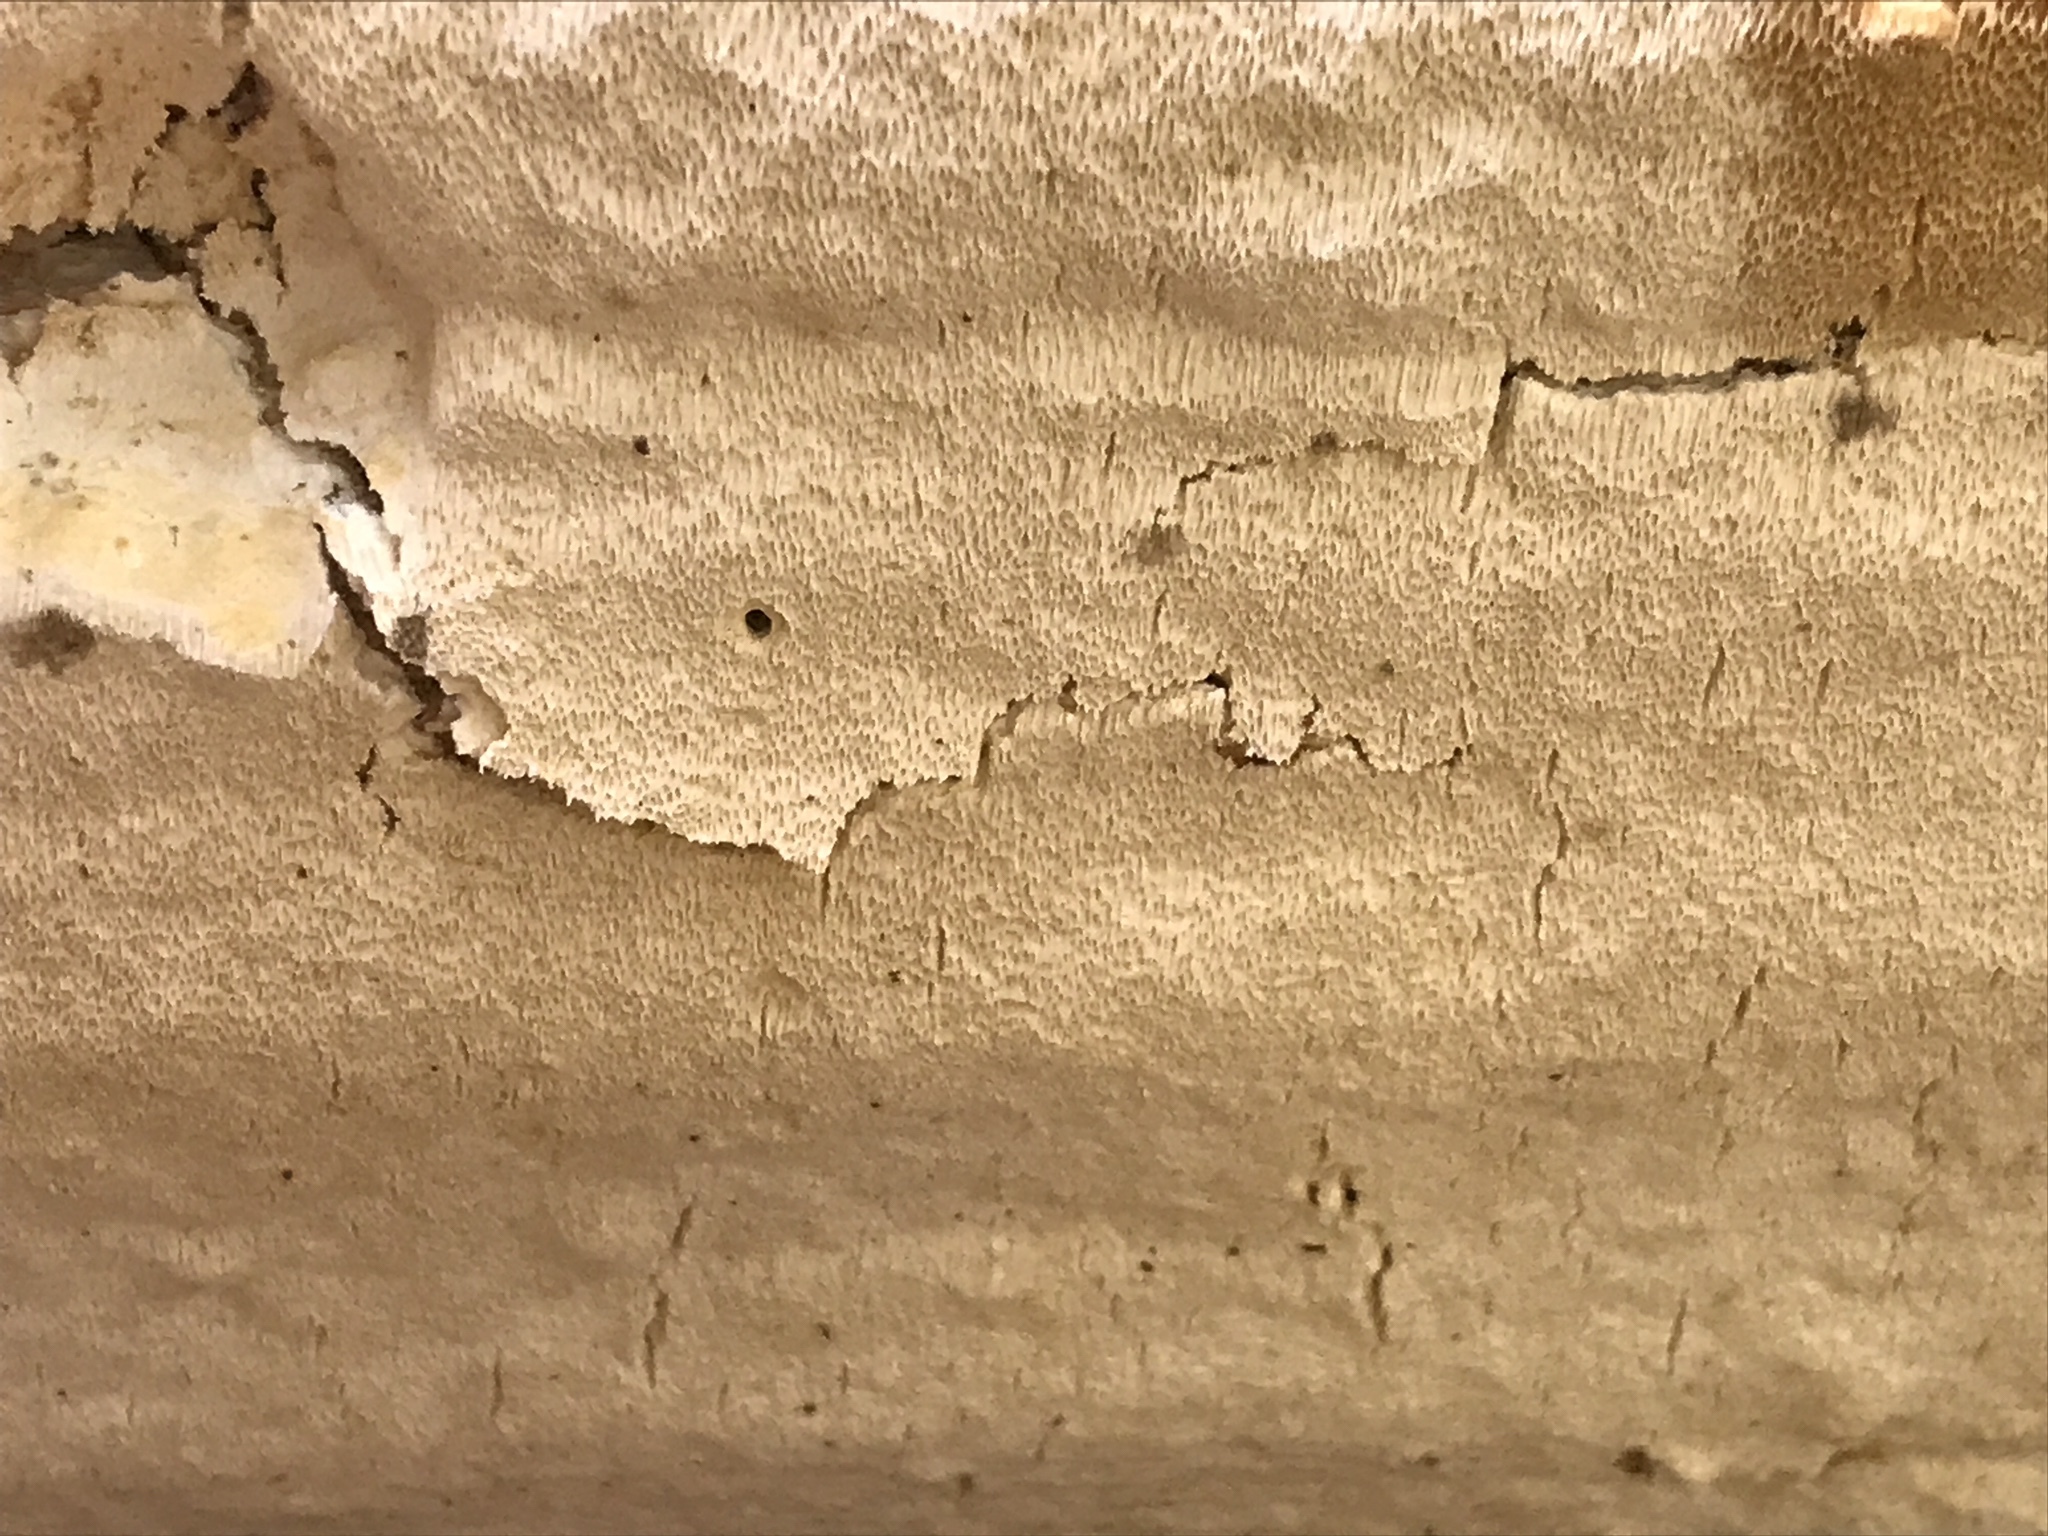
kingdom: Fungi
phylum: Basidiomycota
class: Agaricomycetes
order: Polyporales
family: Polyporaceae
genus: Perenniporia
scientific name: Perenniporia bostonensis
